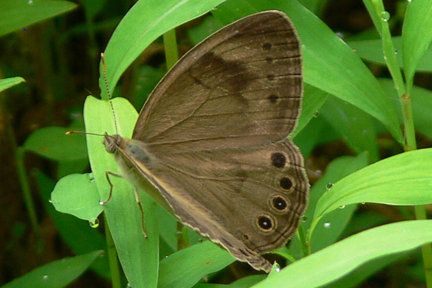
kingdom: Animalia
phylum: Arthropoda
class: Insecta
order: Lepidoptera
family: Nymphalidae
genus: Lethe
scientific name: Lethe eurydice
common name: Eyed brown
